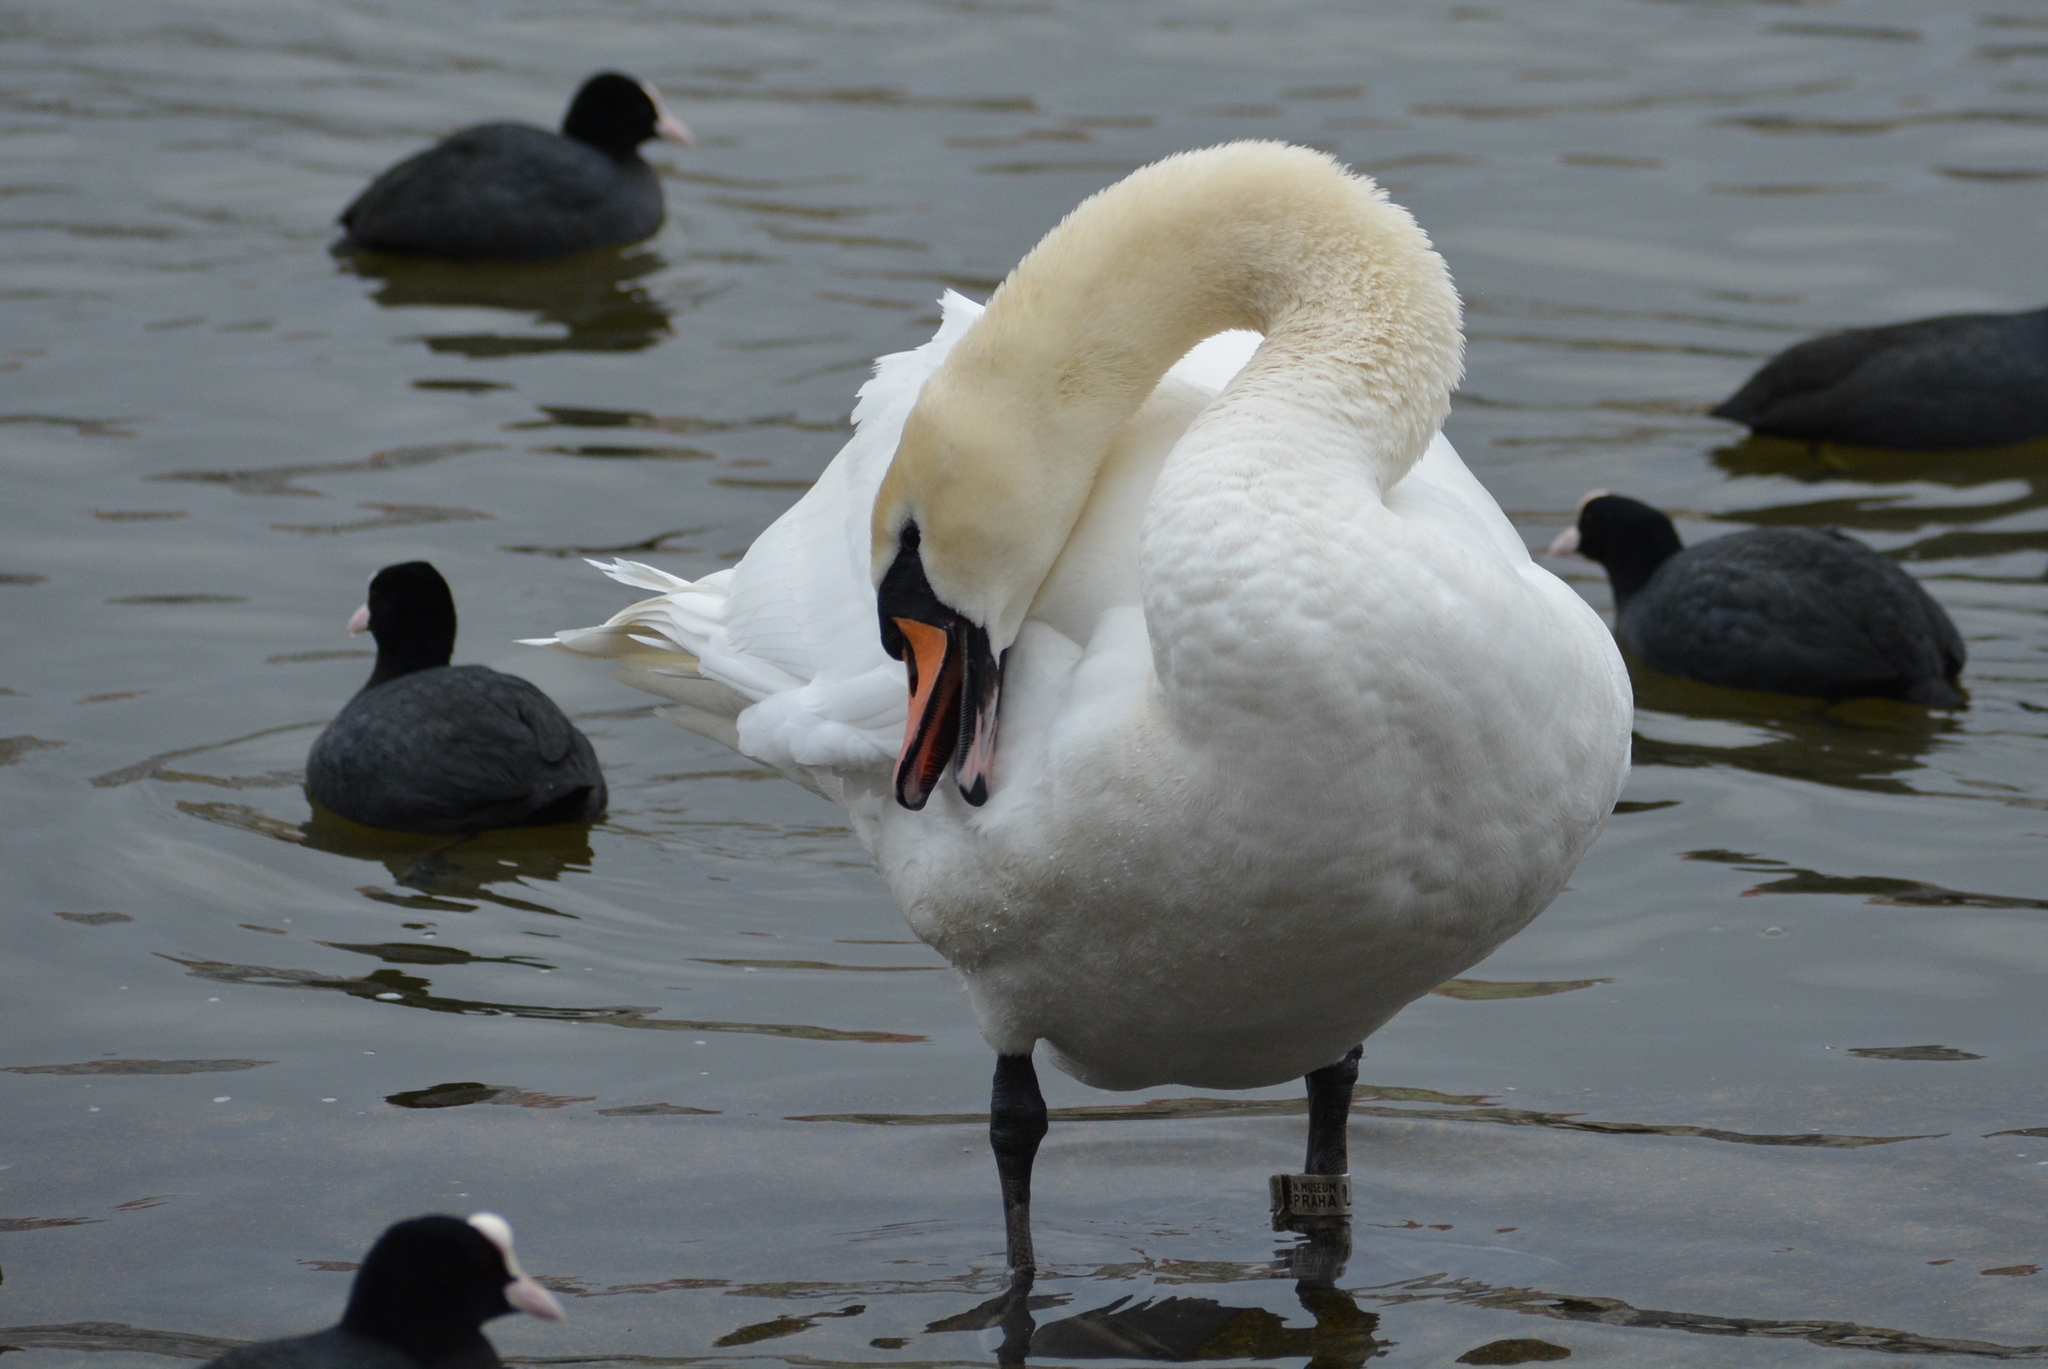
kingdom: Animalia
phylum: Chordata
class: Aves
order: Anseriformes
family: Anatidae
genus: Cygnus
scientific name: Cygnus olor
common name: Mute swan
